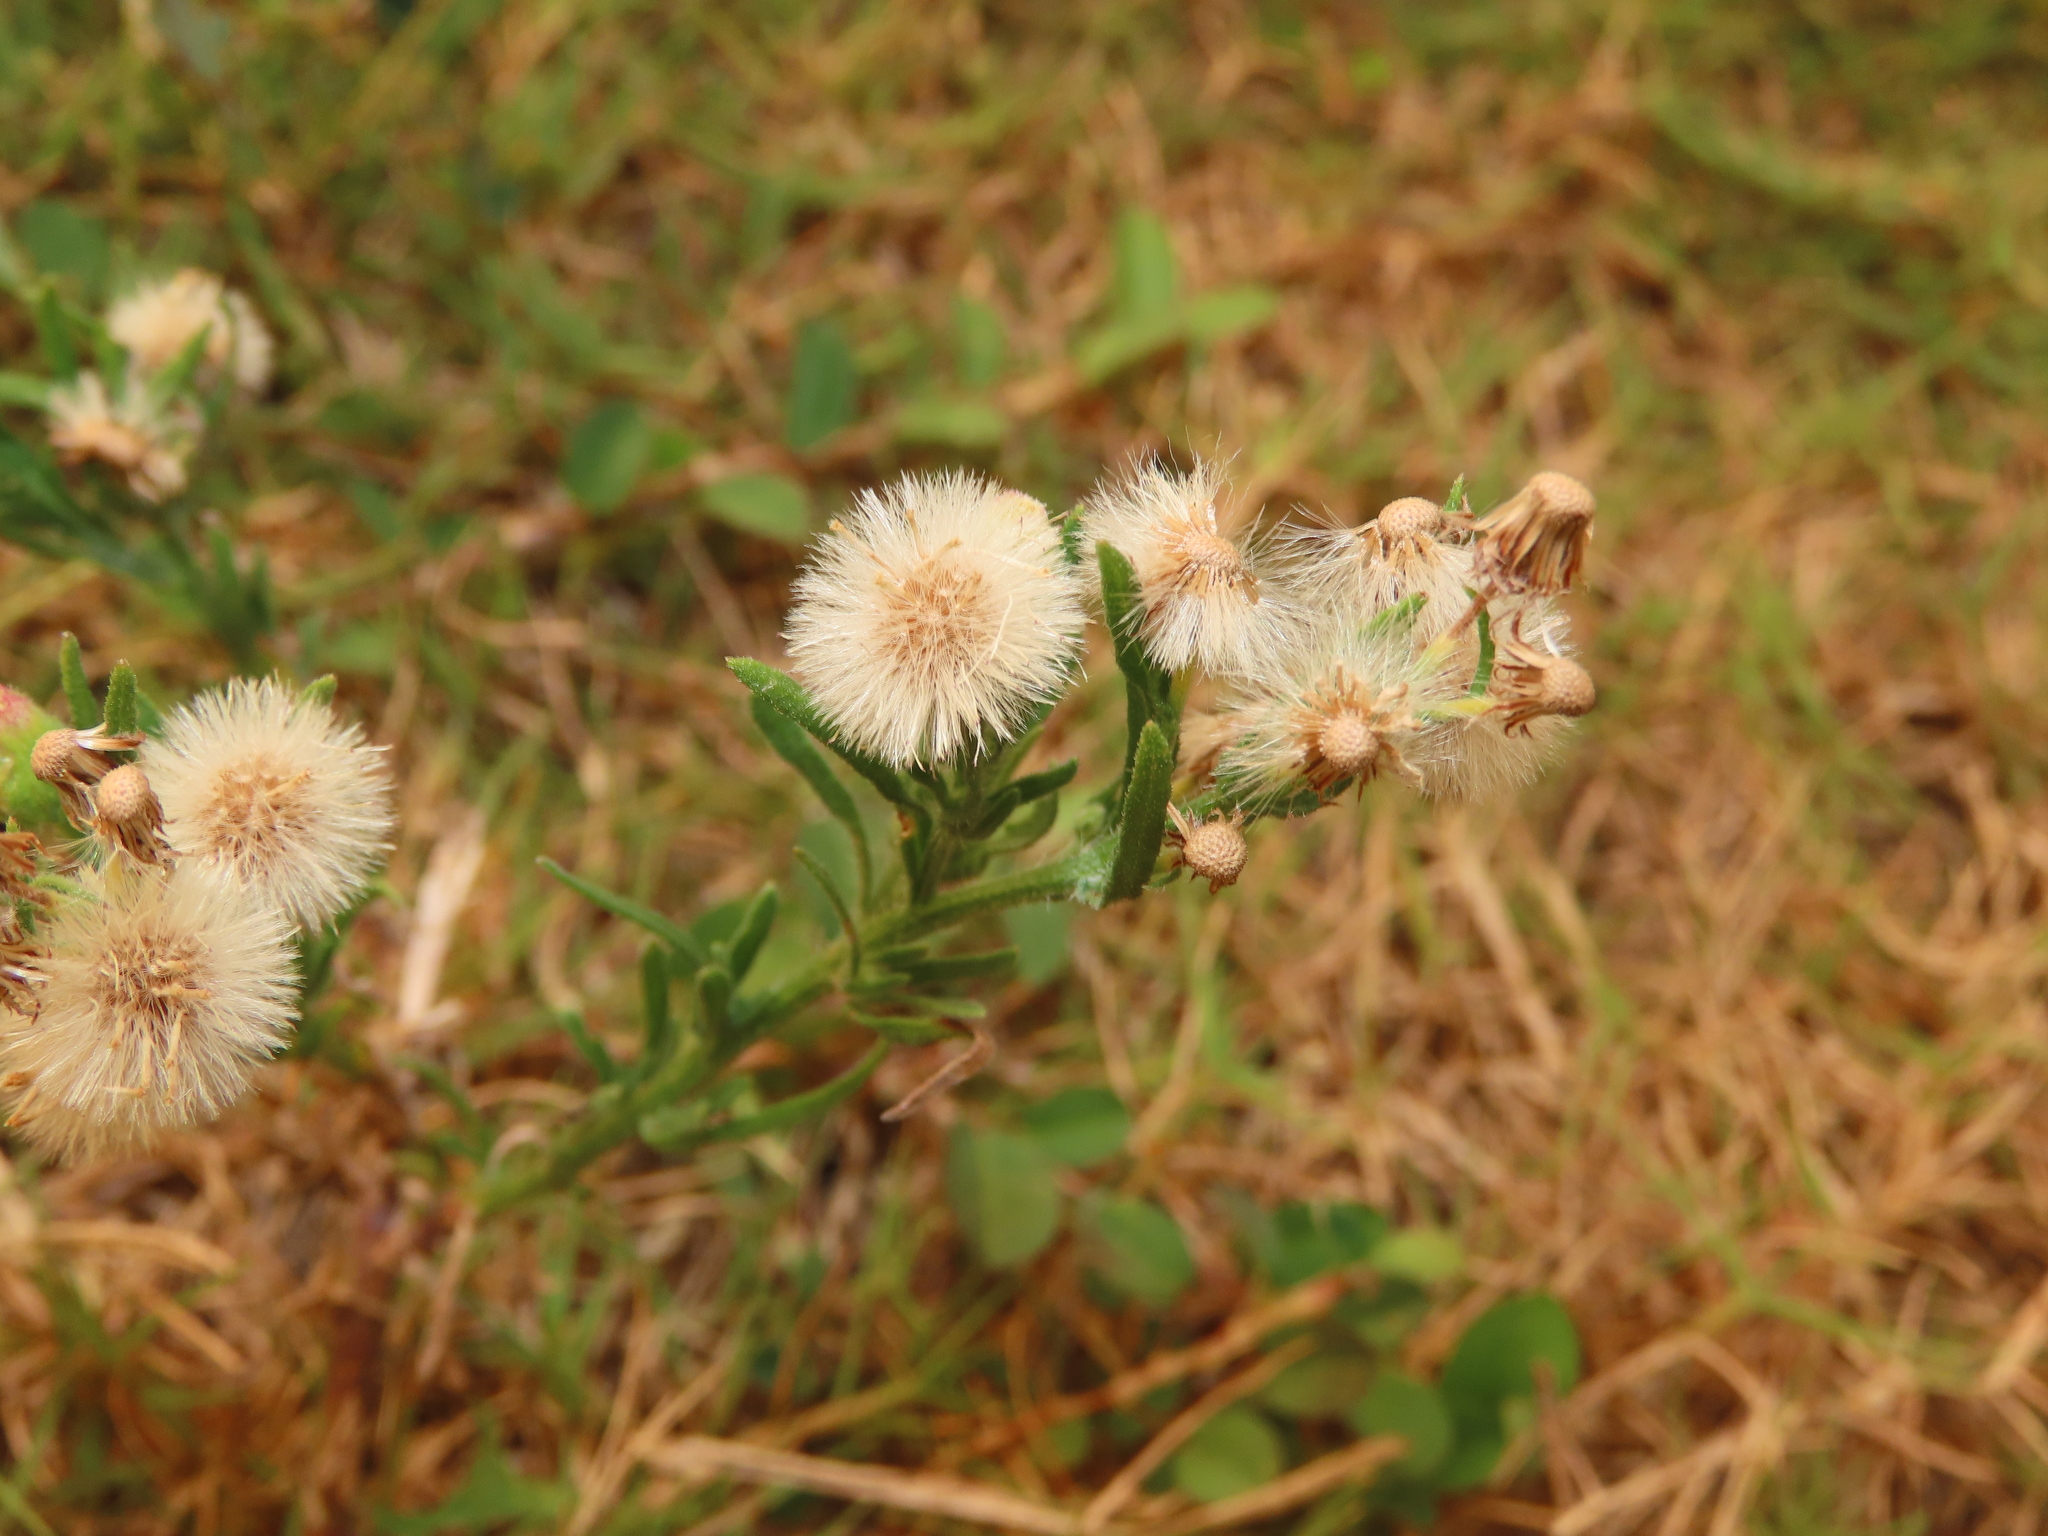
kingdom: Plantae
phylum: Tracheophyta
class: Magnoliopsida
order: Asterales
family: Asteraceae
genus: Erigeron
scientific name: Erigeron bonariensis
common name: Argentine fleabane
